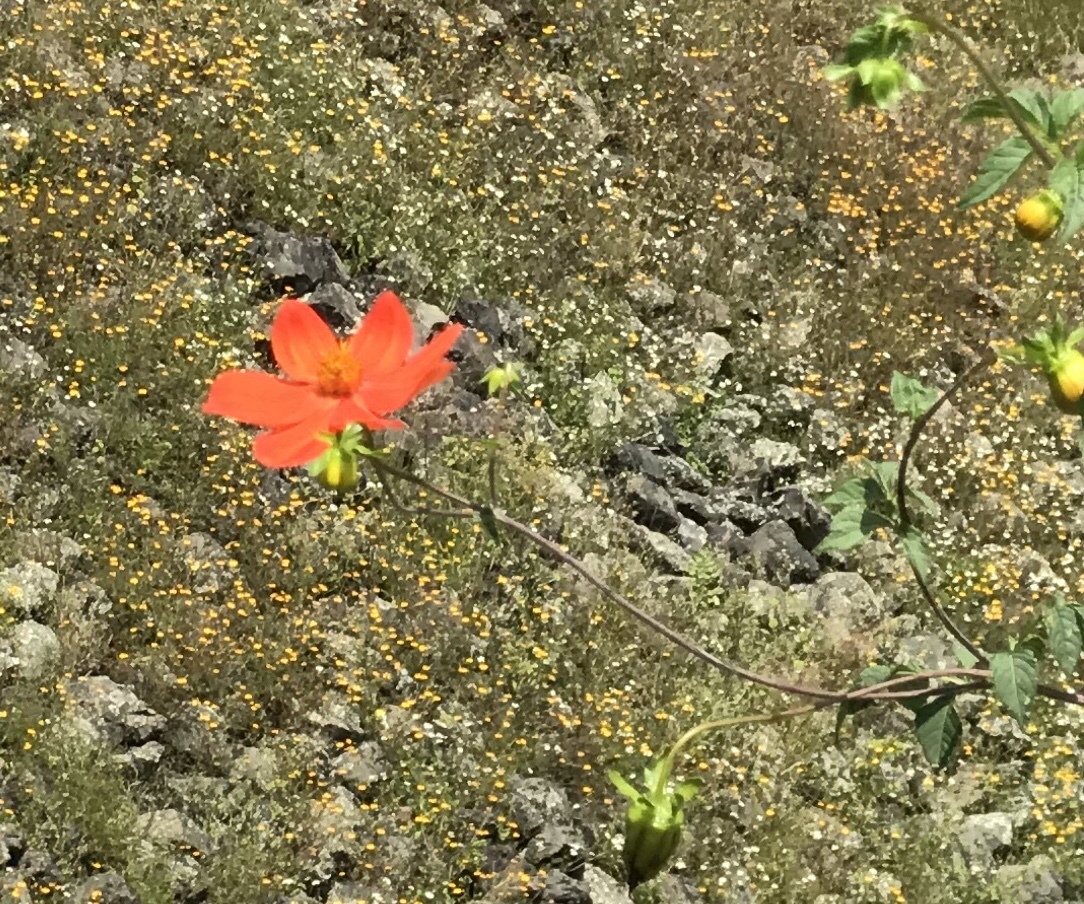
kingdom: Plantae
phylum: Tracheophyta
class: Magnoliopsida
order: Asterales
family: Asteraceae
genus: Dahlia
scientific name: Dahlia coccinea
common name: Red dahlia
